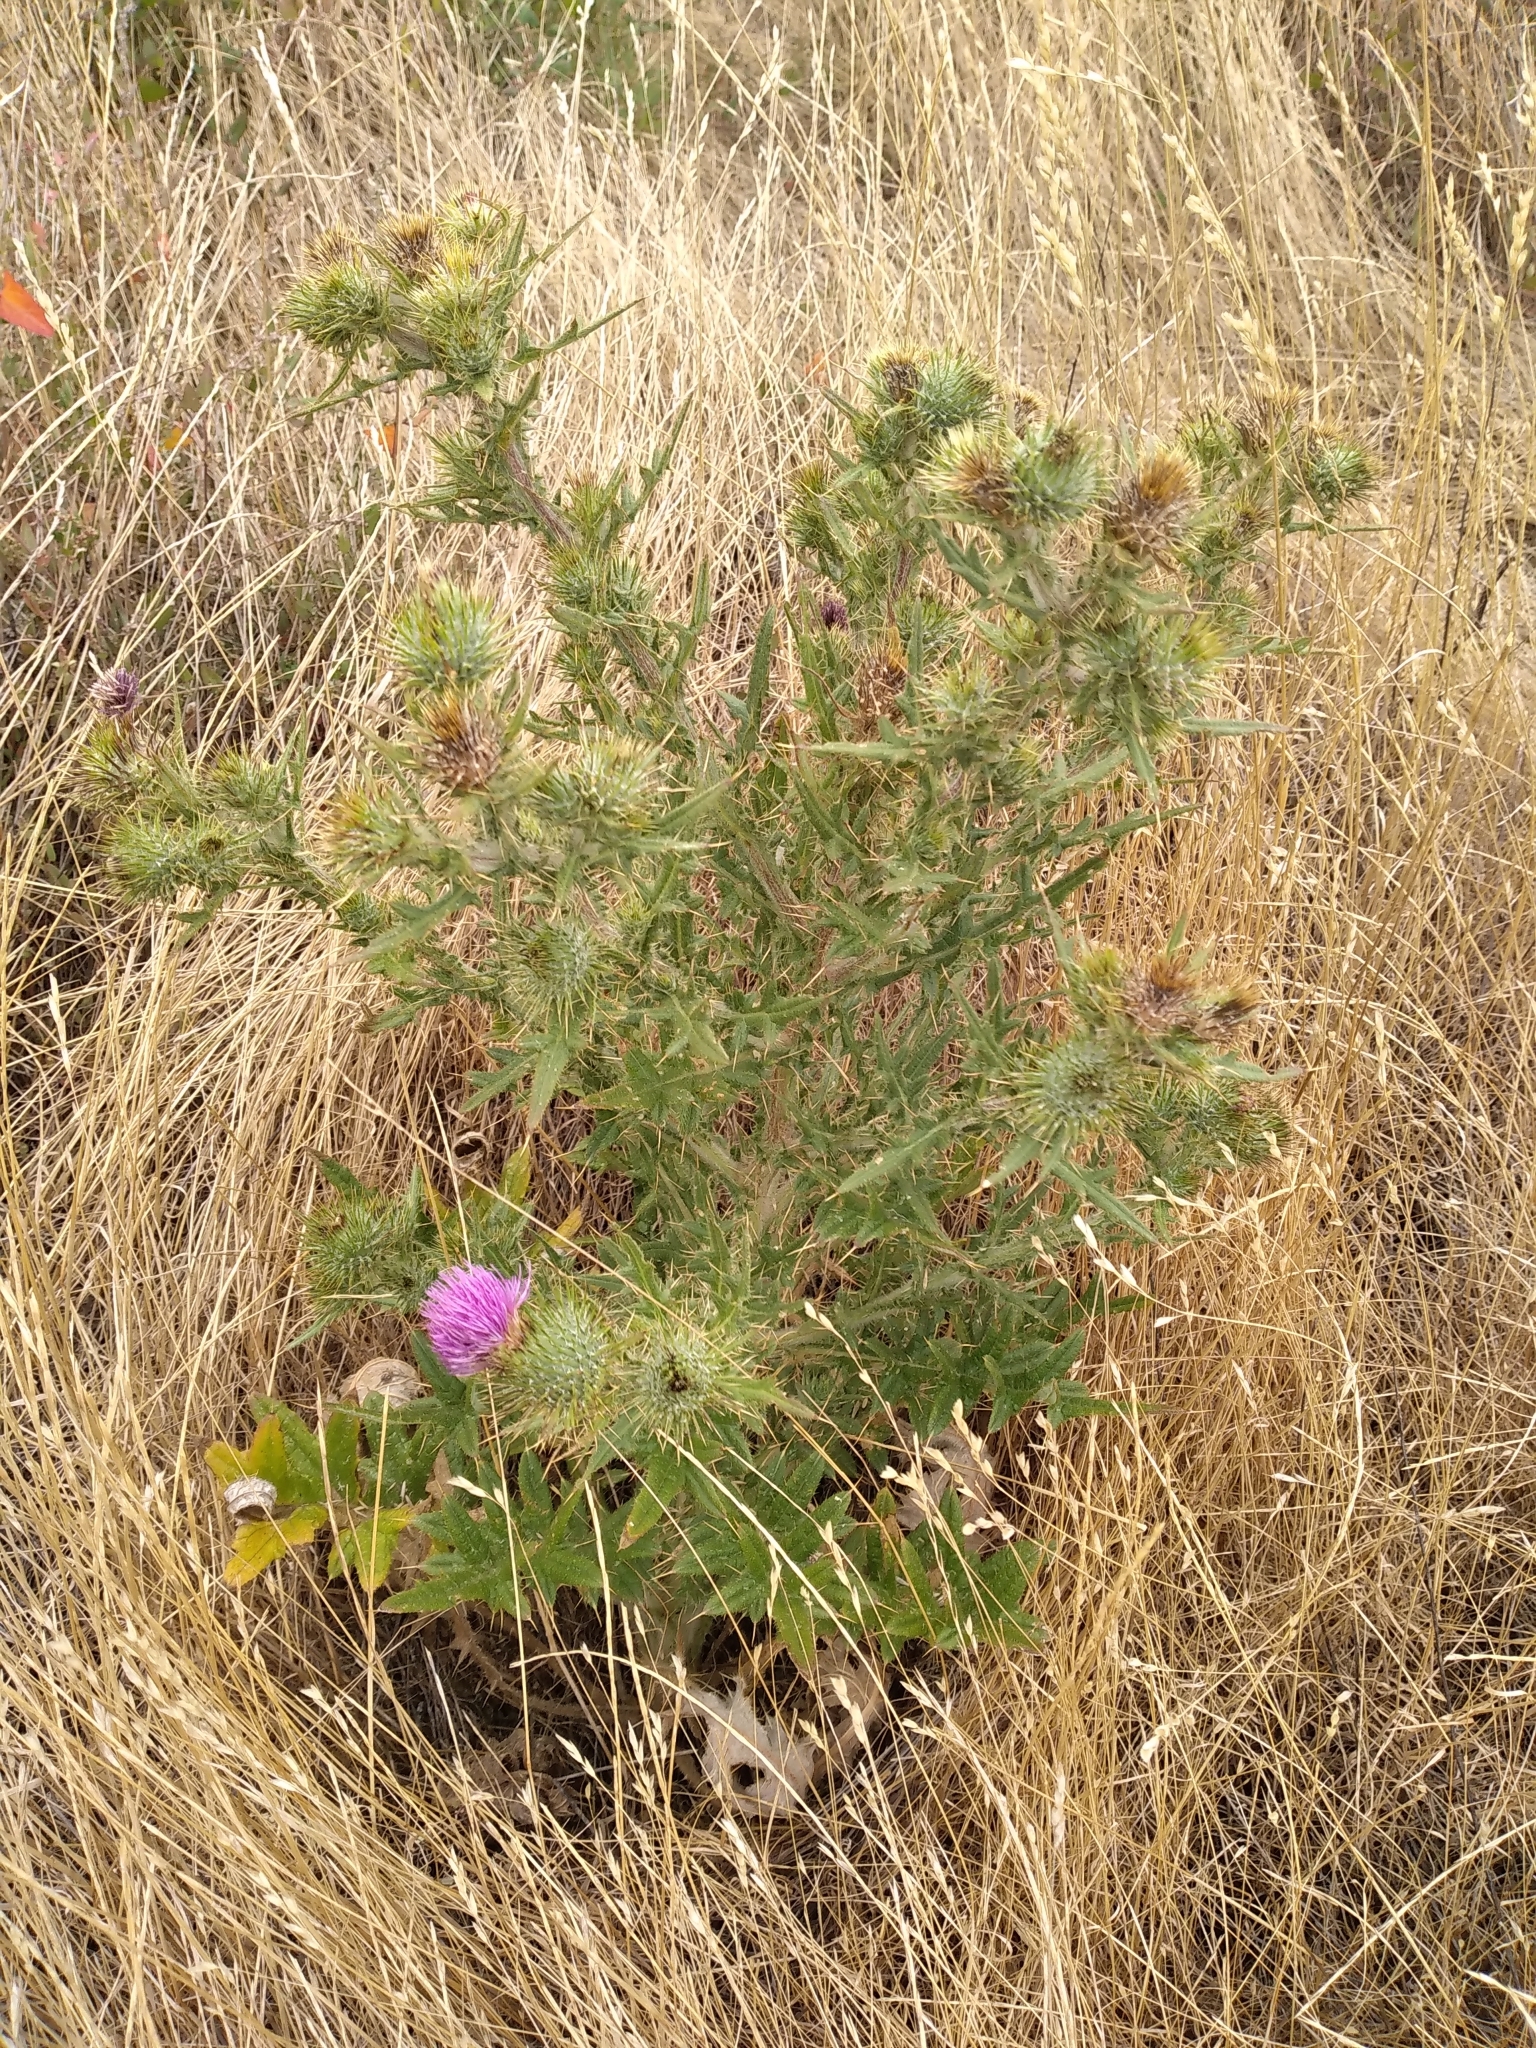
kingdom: Plantae
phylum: Tracheophyta
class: Magnoliopsida
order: Asterales
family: Asteraceae
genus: Cirsium
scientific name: Cirsium vulgare
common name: Bull thistle
